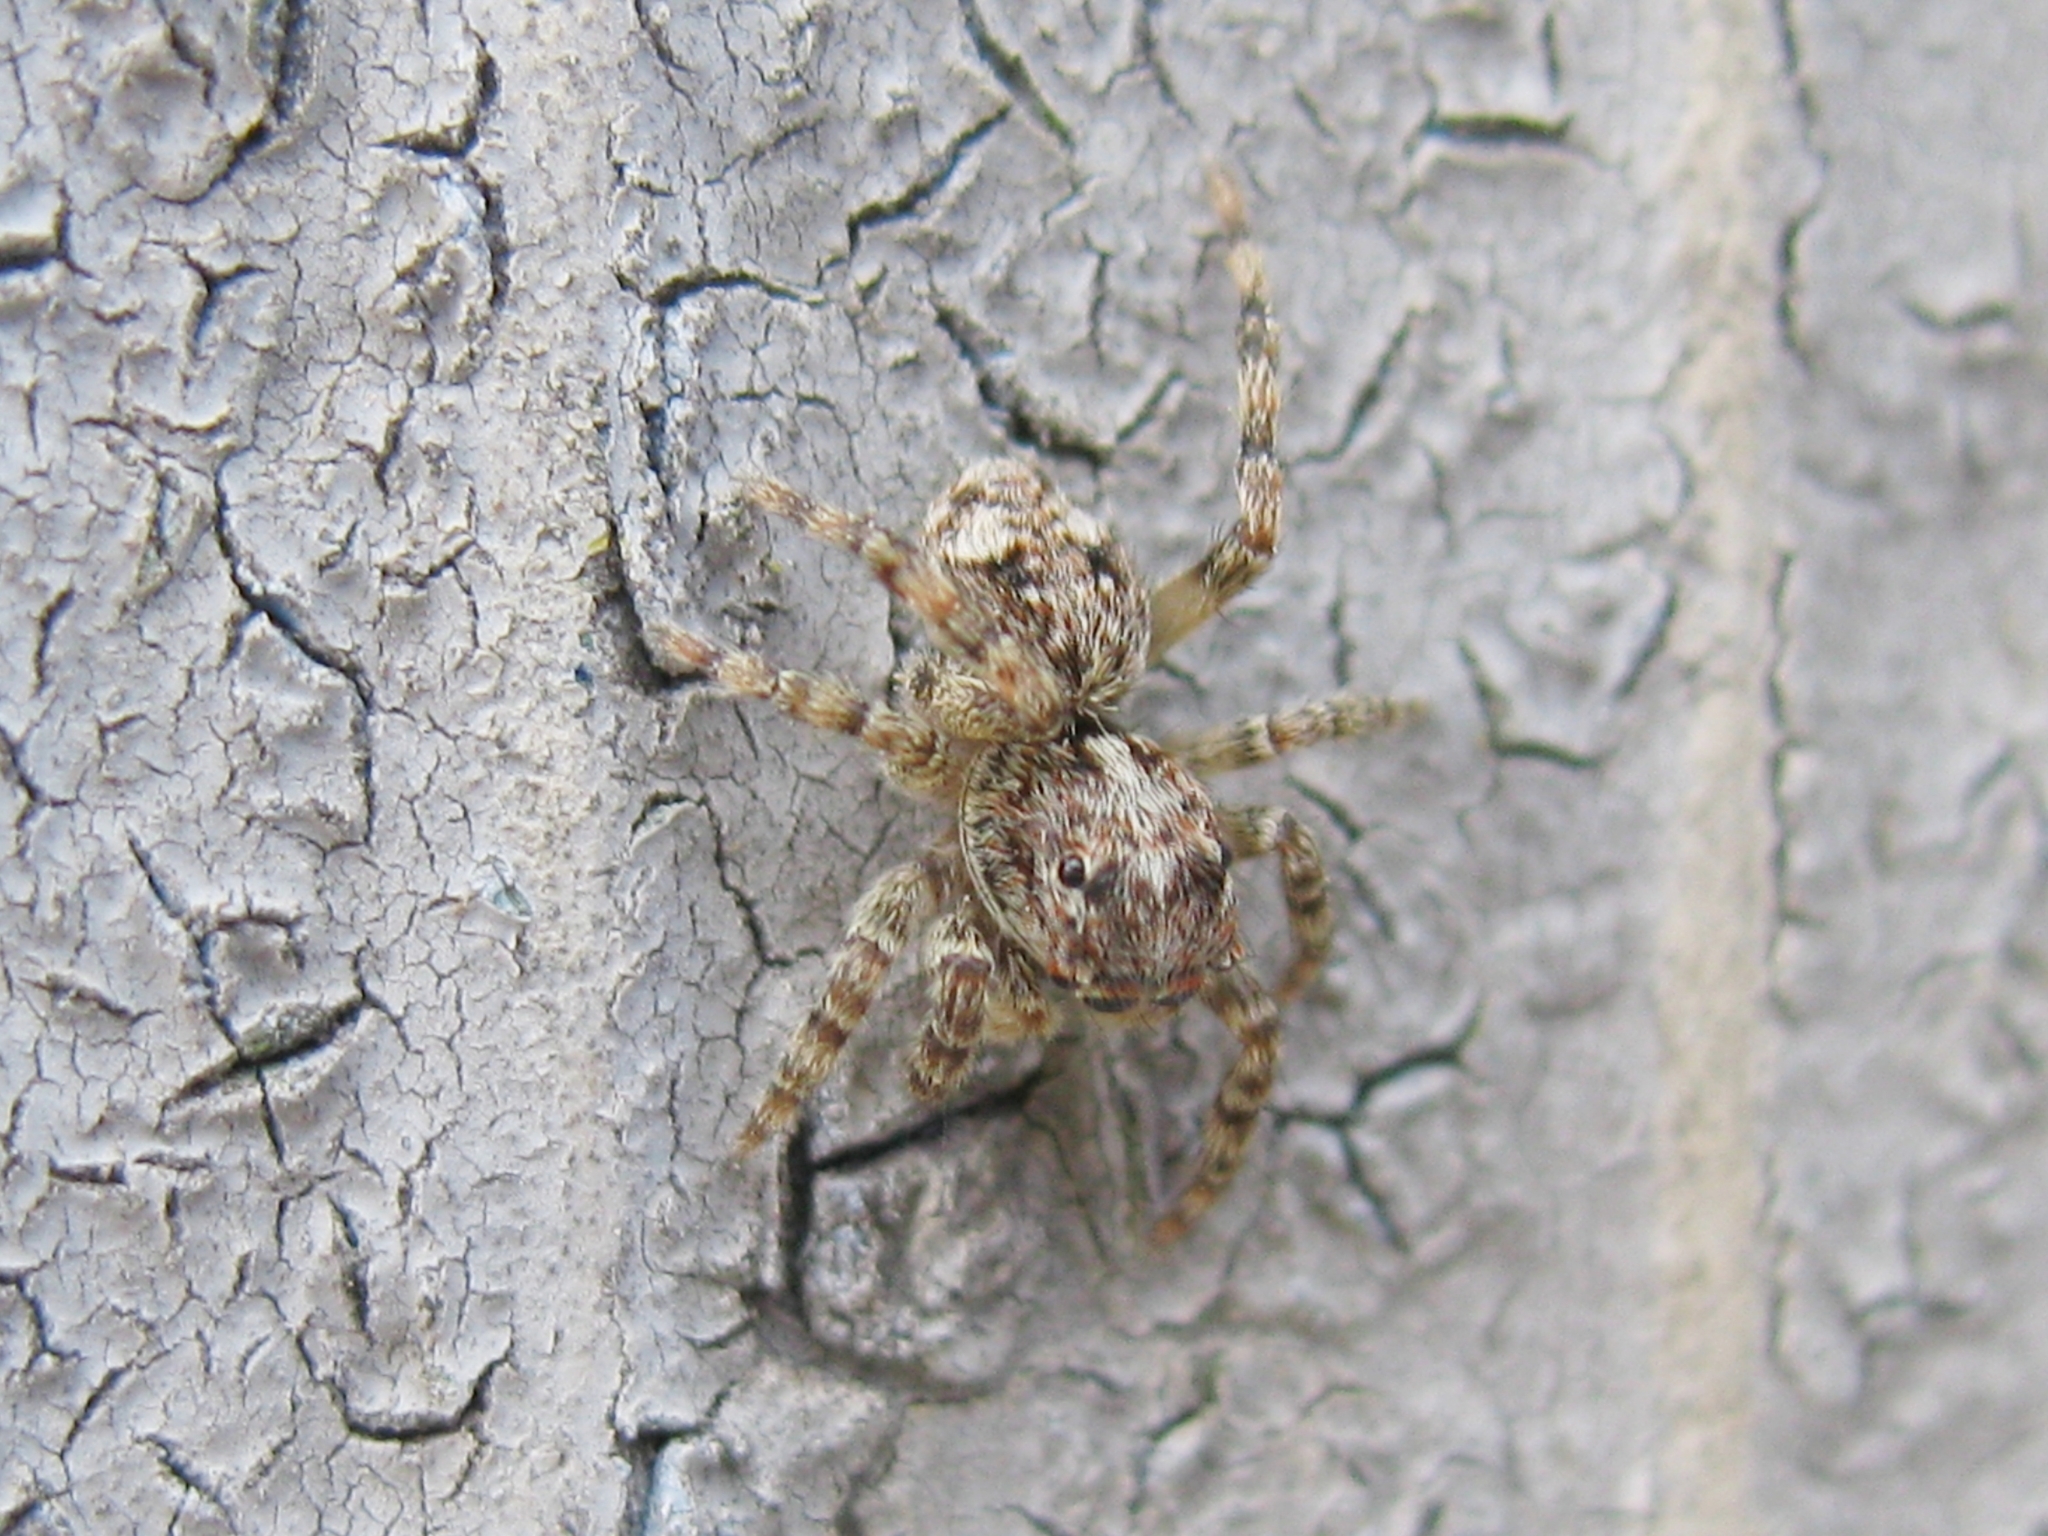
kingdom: Animalia
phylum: Arthropoda
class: Arachnida
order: Araneae
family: Salticidae
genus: Attulus
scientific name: Attulus relictarius
